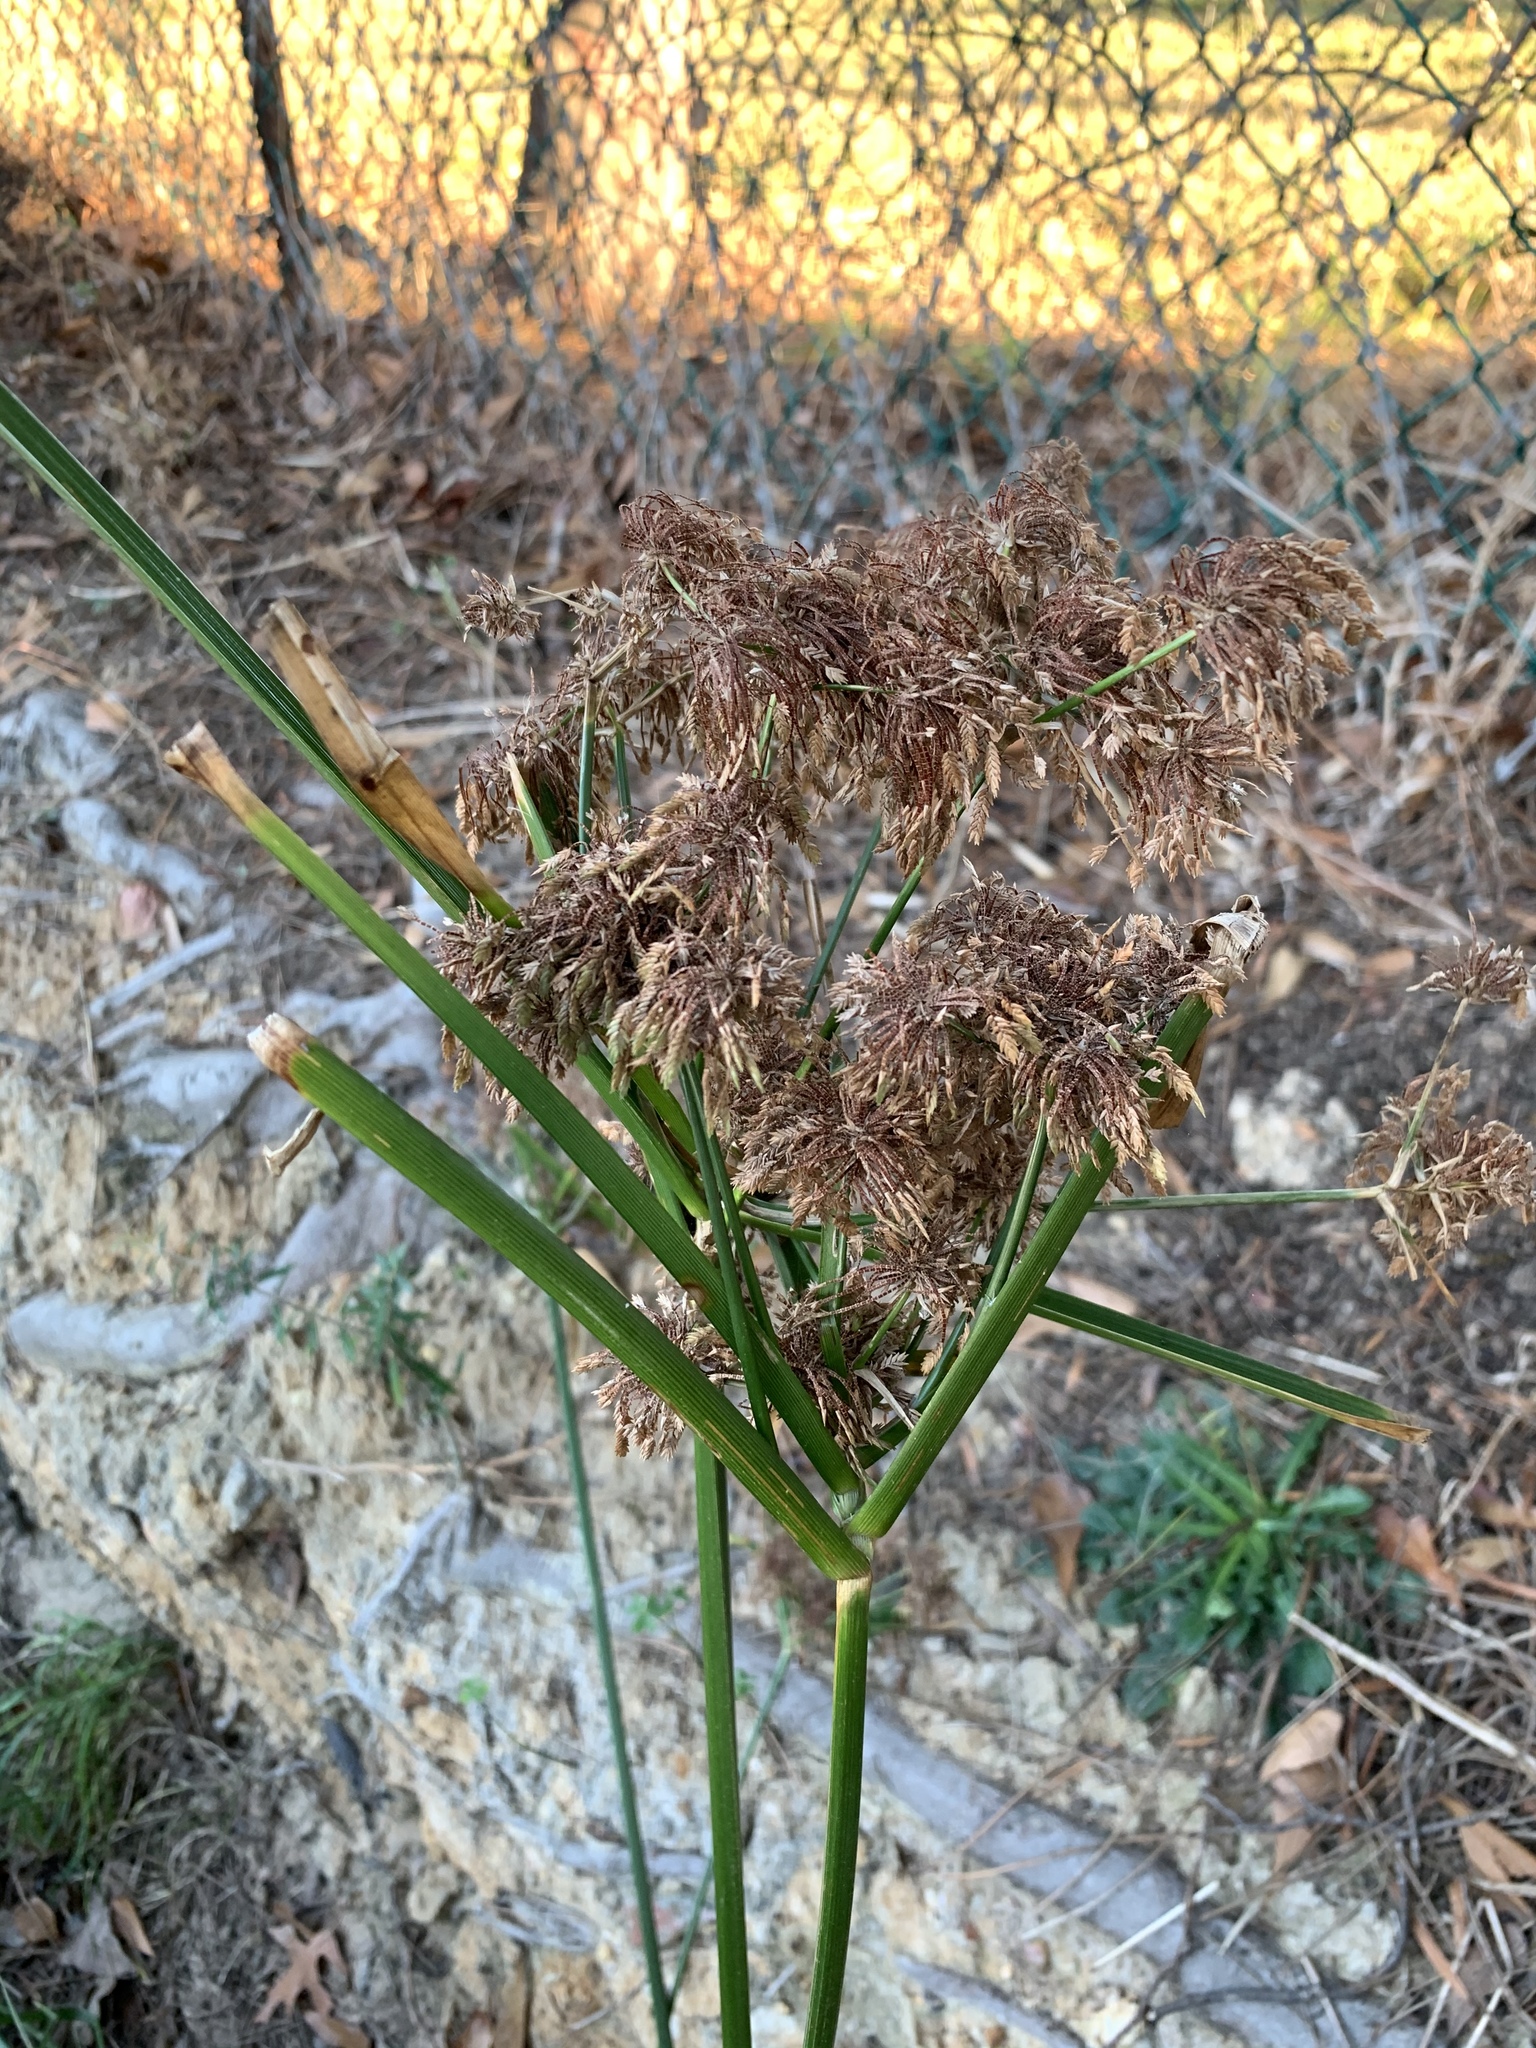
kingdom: Plantae
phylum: Tracheophyta
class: Liliopsida
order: Poales
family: Cyperaceae
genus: Cyperus
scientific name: Cyperus eragrostis
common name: Tall flatsedge
